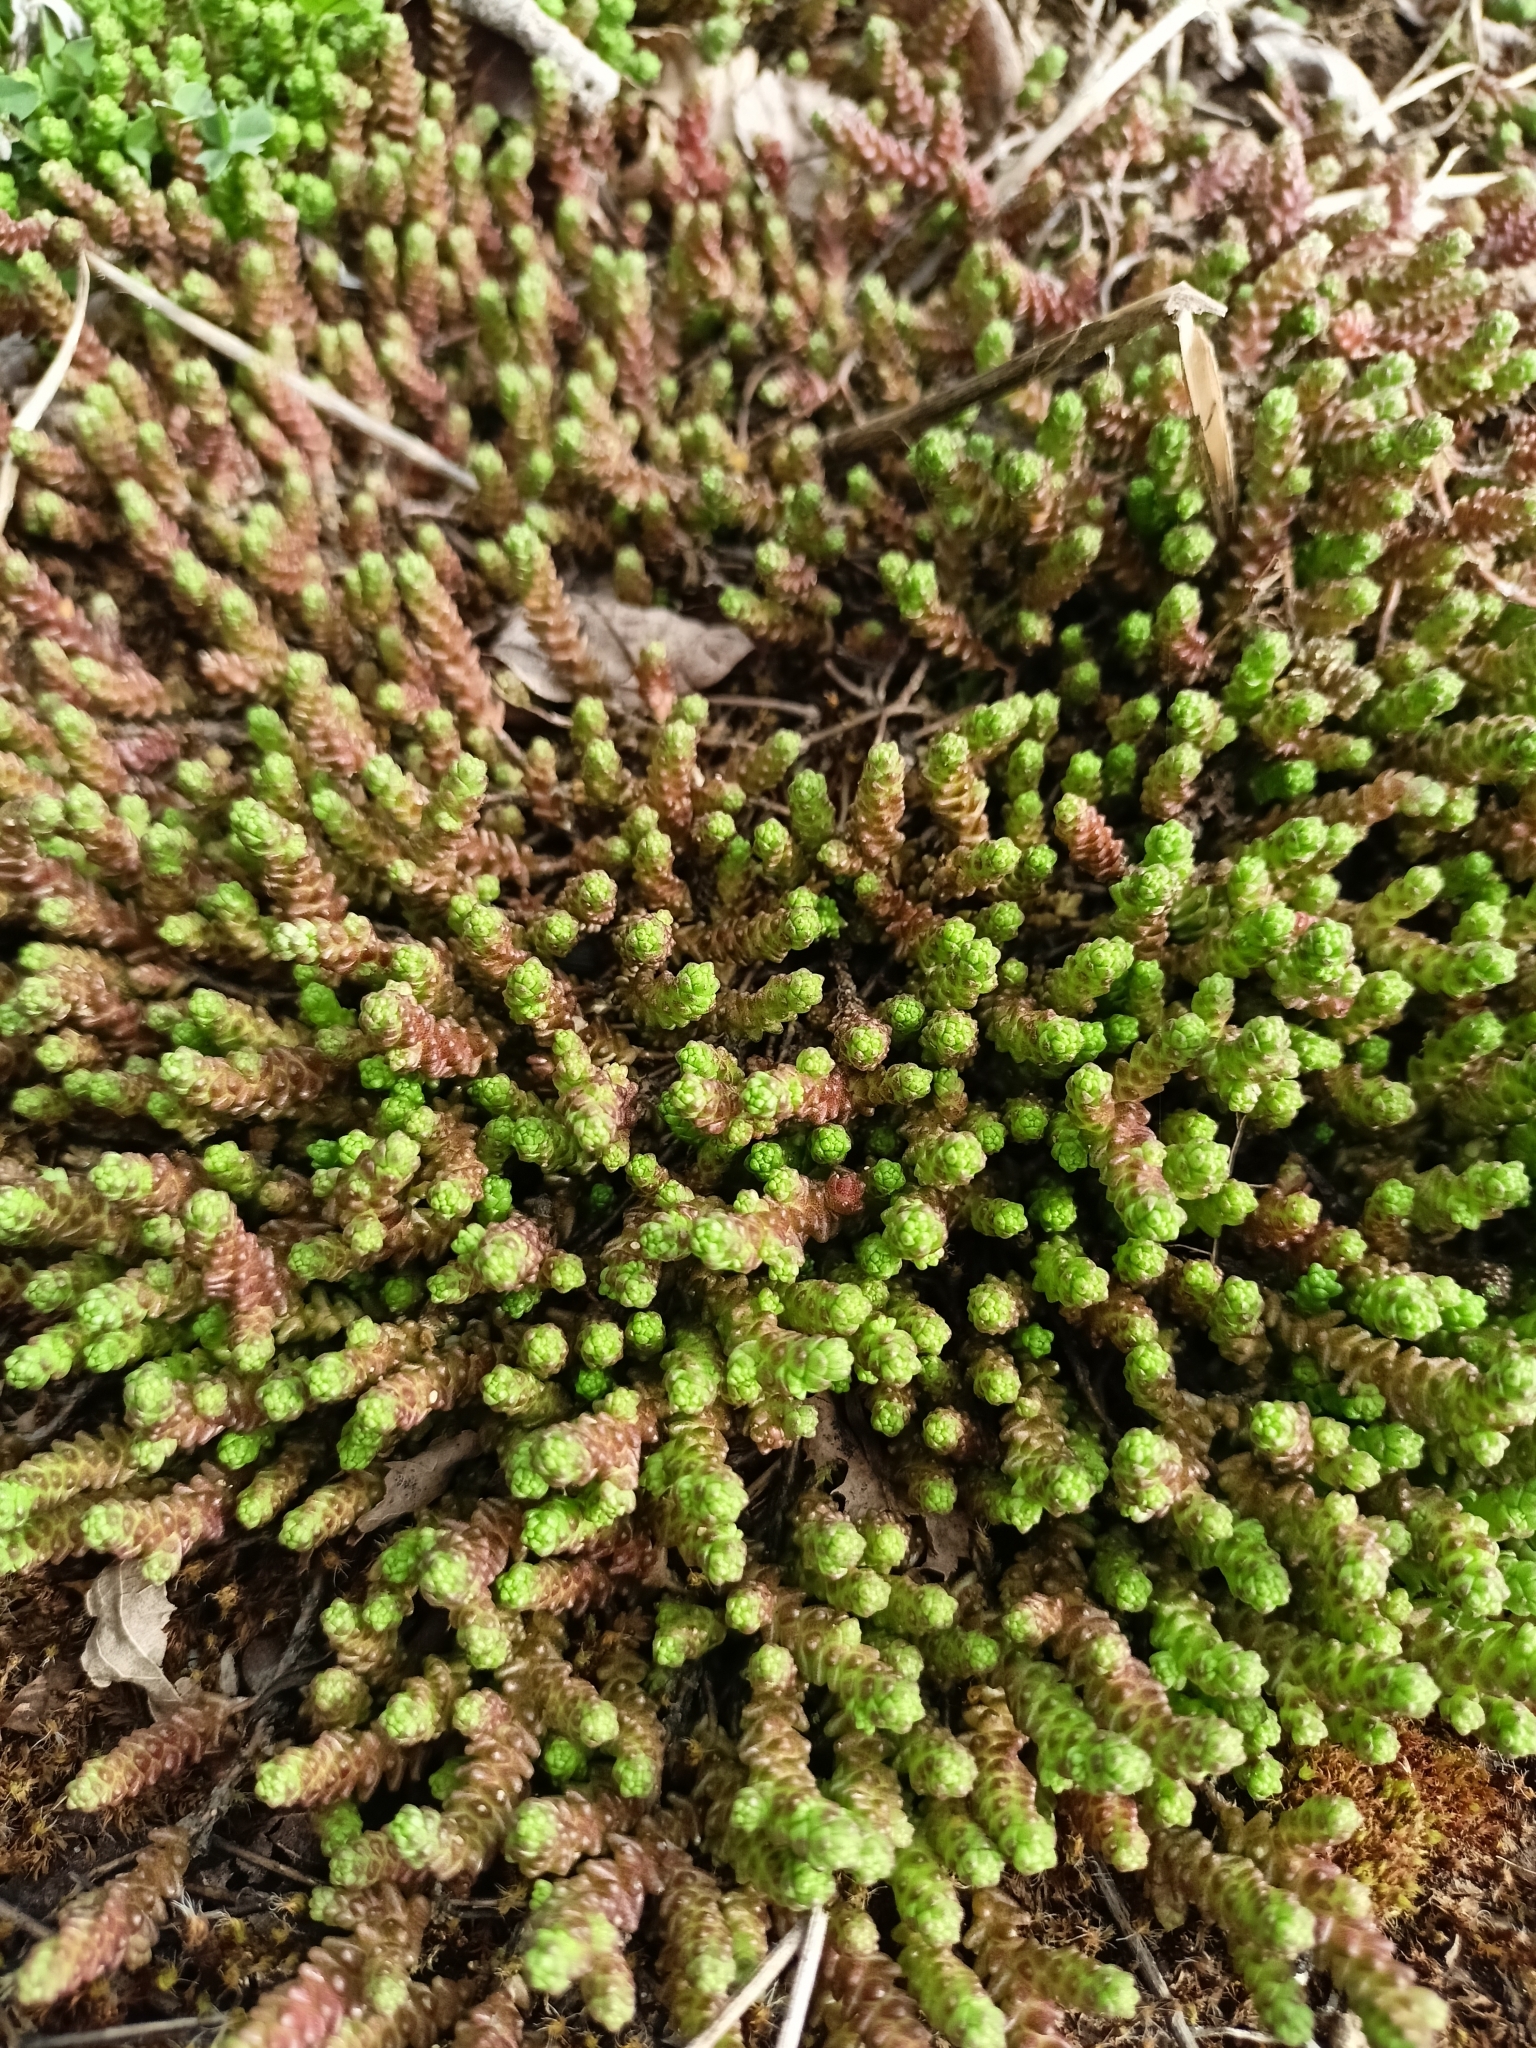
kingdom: Plantae
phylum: Tracheophyta
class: Magnoliopsida
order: Saxifragales
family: Crassulaceae
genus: Sedum
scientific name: Sedum acre
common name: Biting stonecrop
